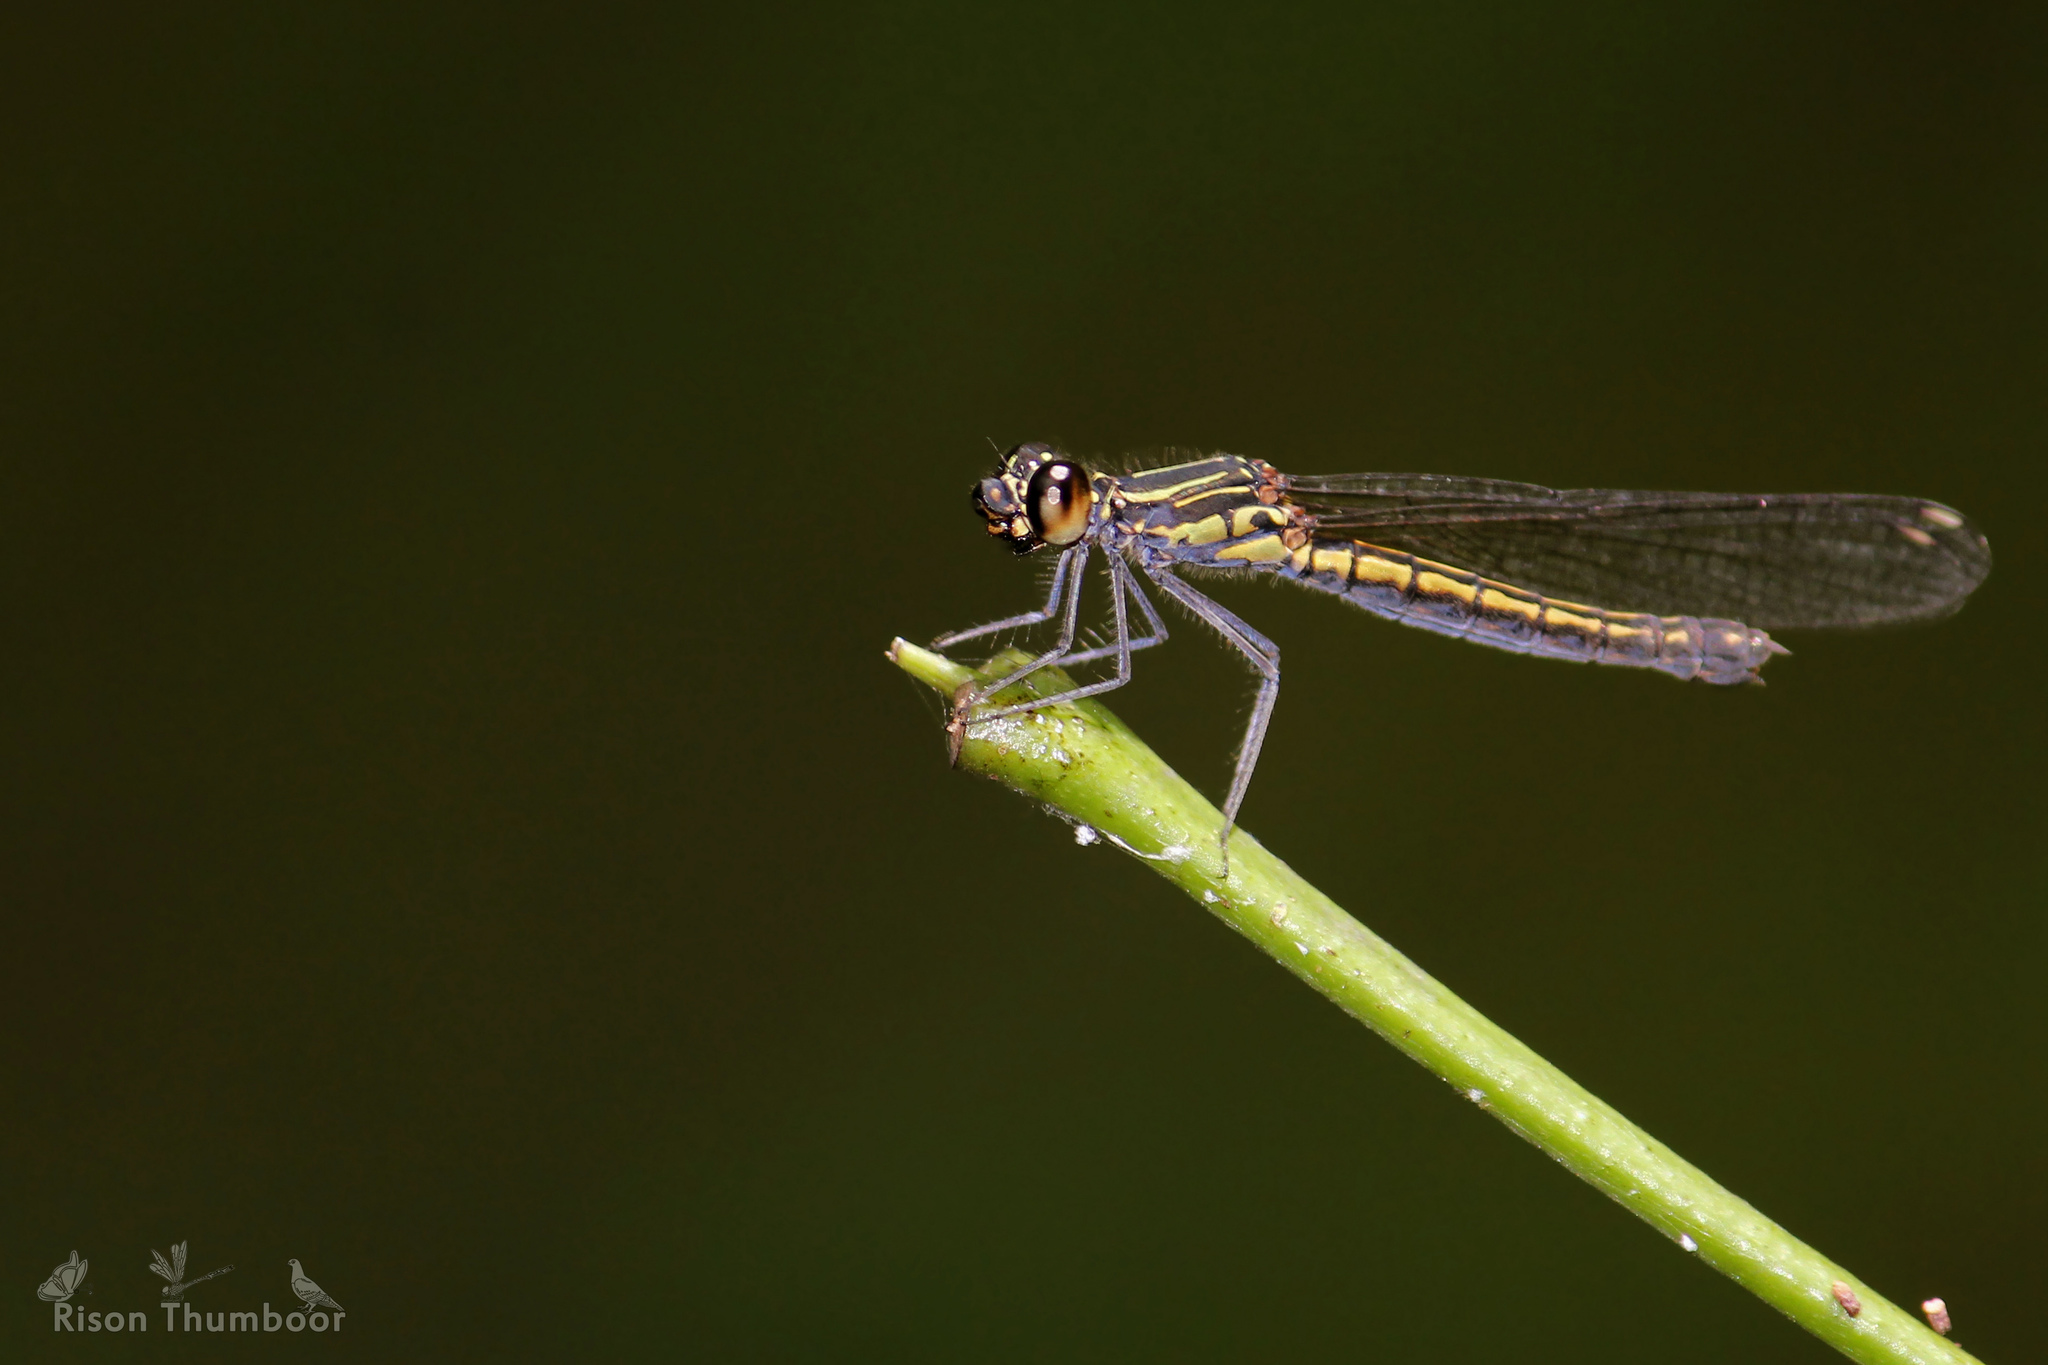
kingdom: Animalia
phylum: Arthropoda
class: Insecta
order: Odonata
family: Chlorocyphidae
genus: Libellago
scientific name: Libellago indica
